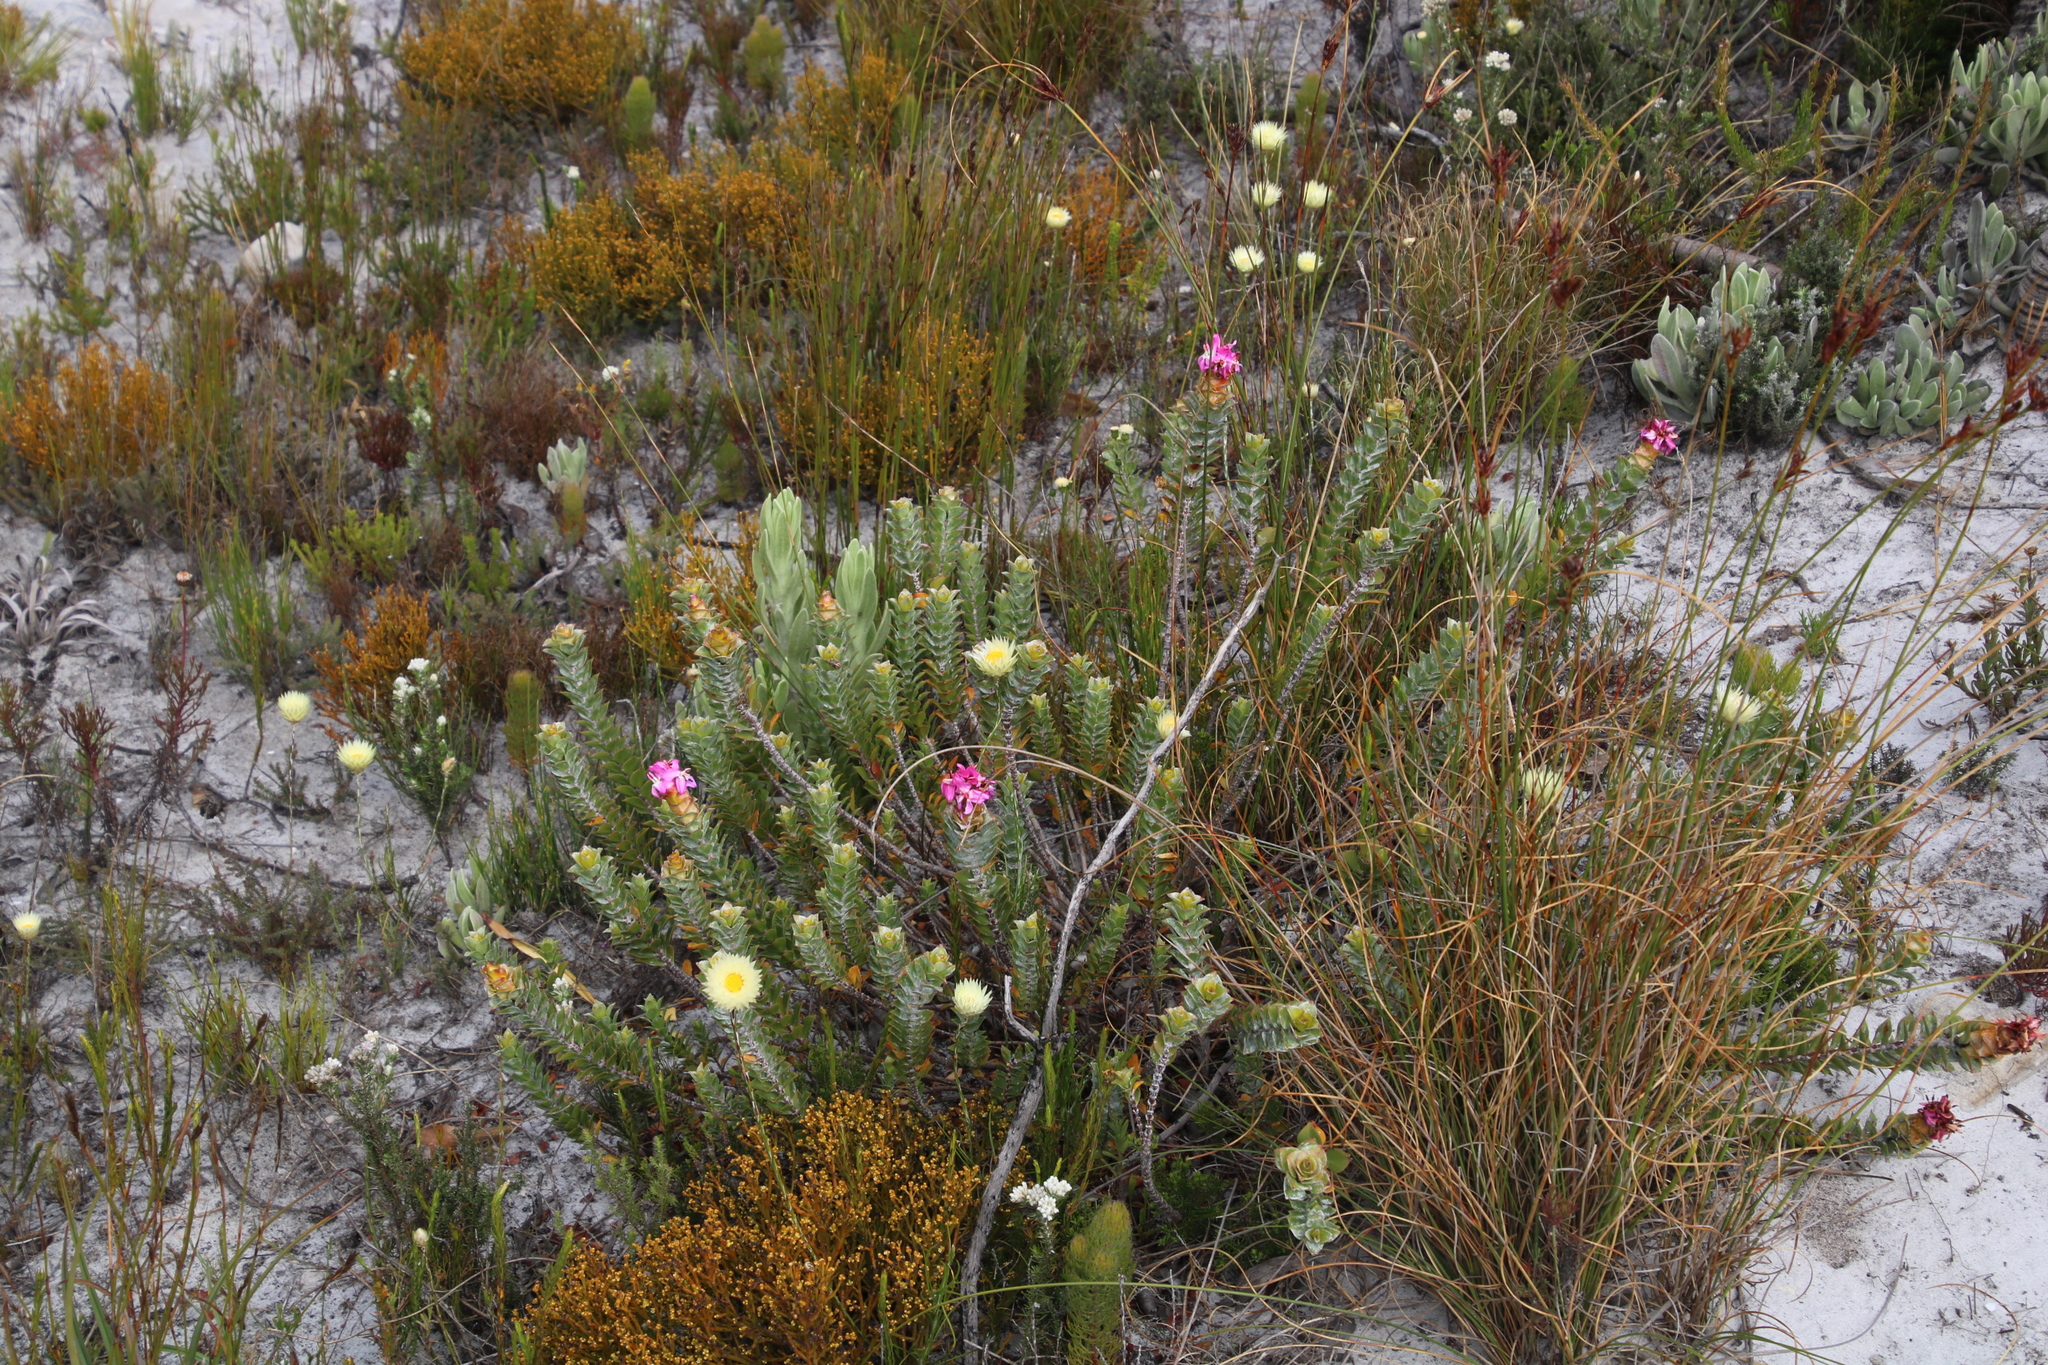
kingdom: Plantae
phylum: Tracheophyta
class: Magnoliopsida
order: Myrtales
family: Penaeaceae
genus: Saltera
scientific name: Saltera sarcocolla
